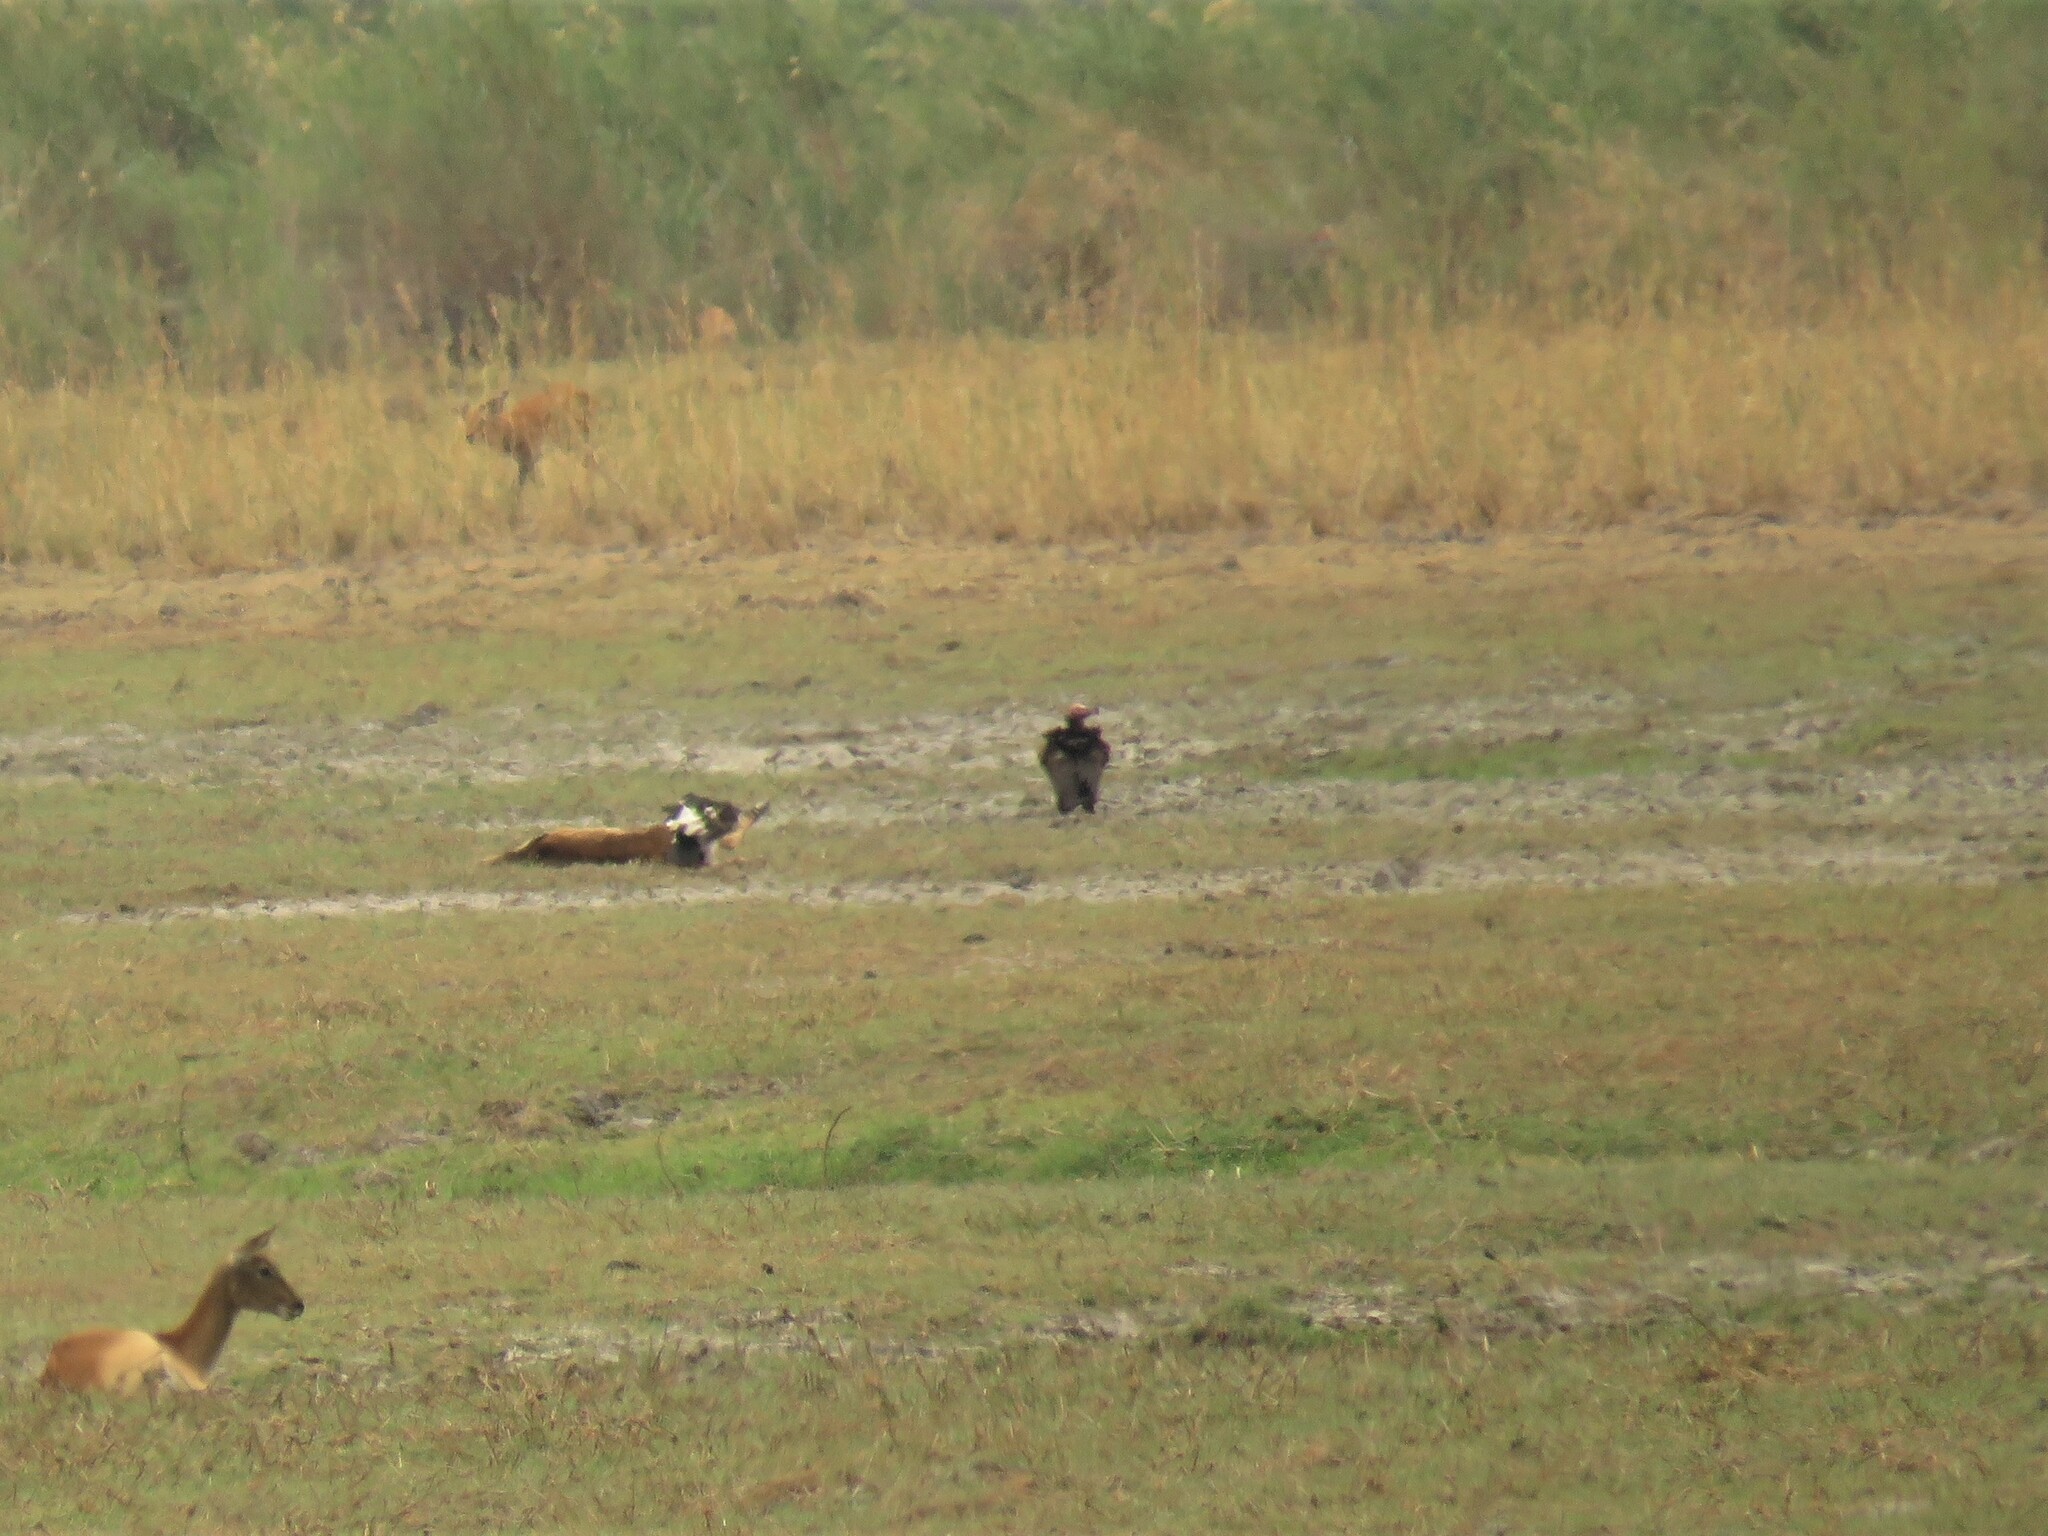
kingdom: Animalia
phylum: Chordata
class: Aves
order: Accipitriformes
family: Accipitridae
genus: Torgos
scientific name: Torgos tracheliotos
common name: Lappet-faced vulture
